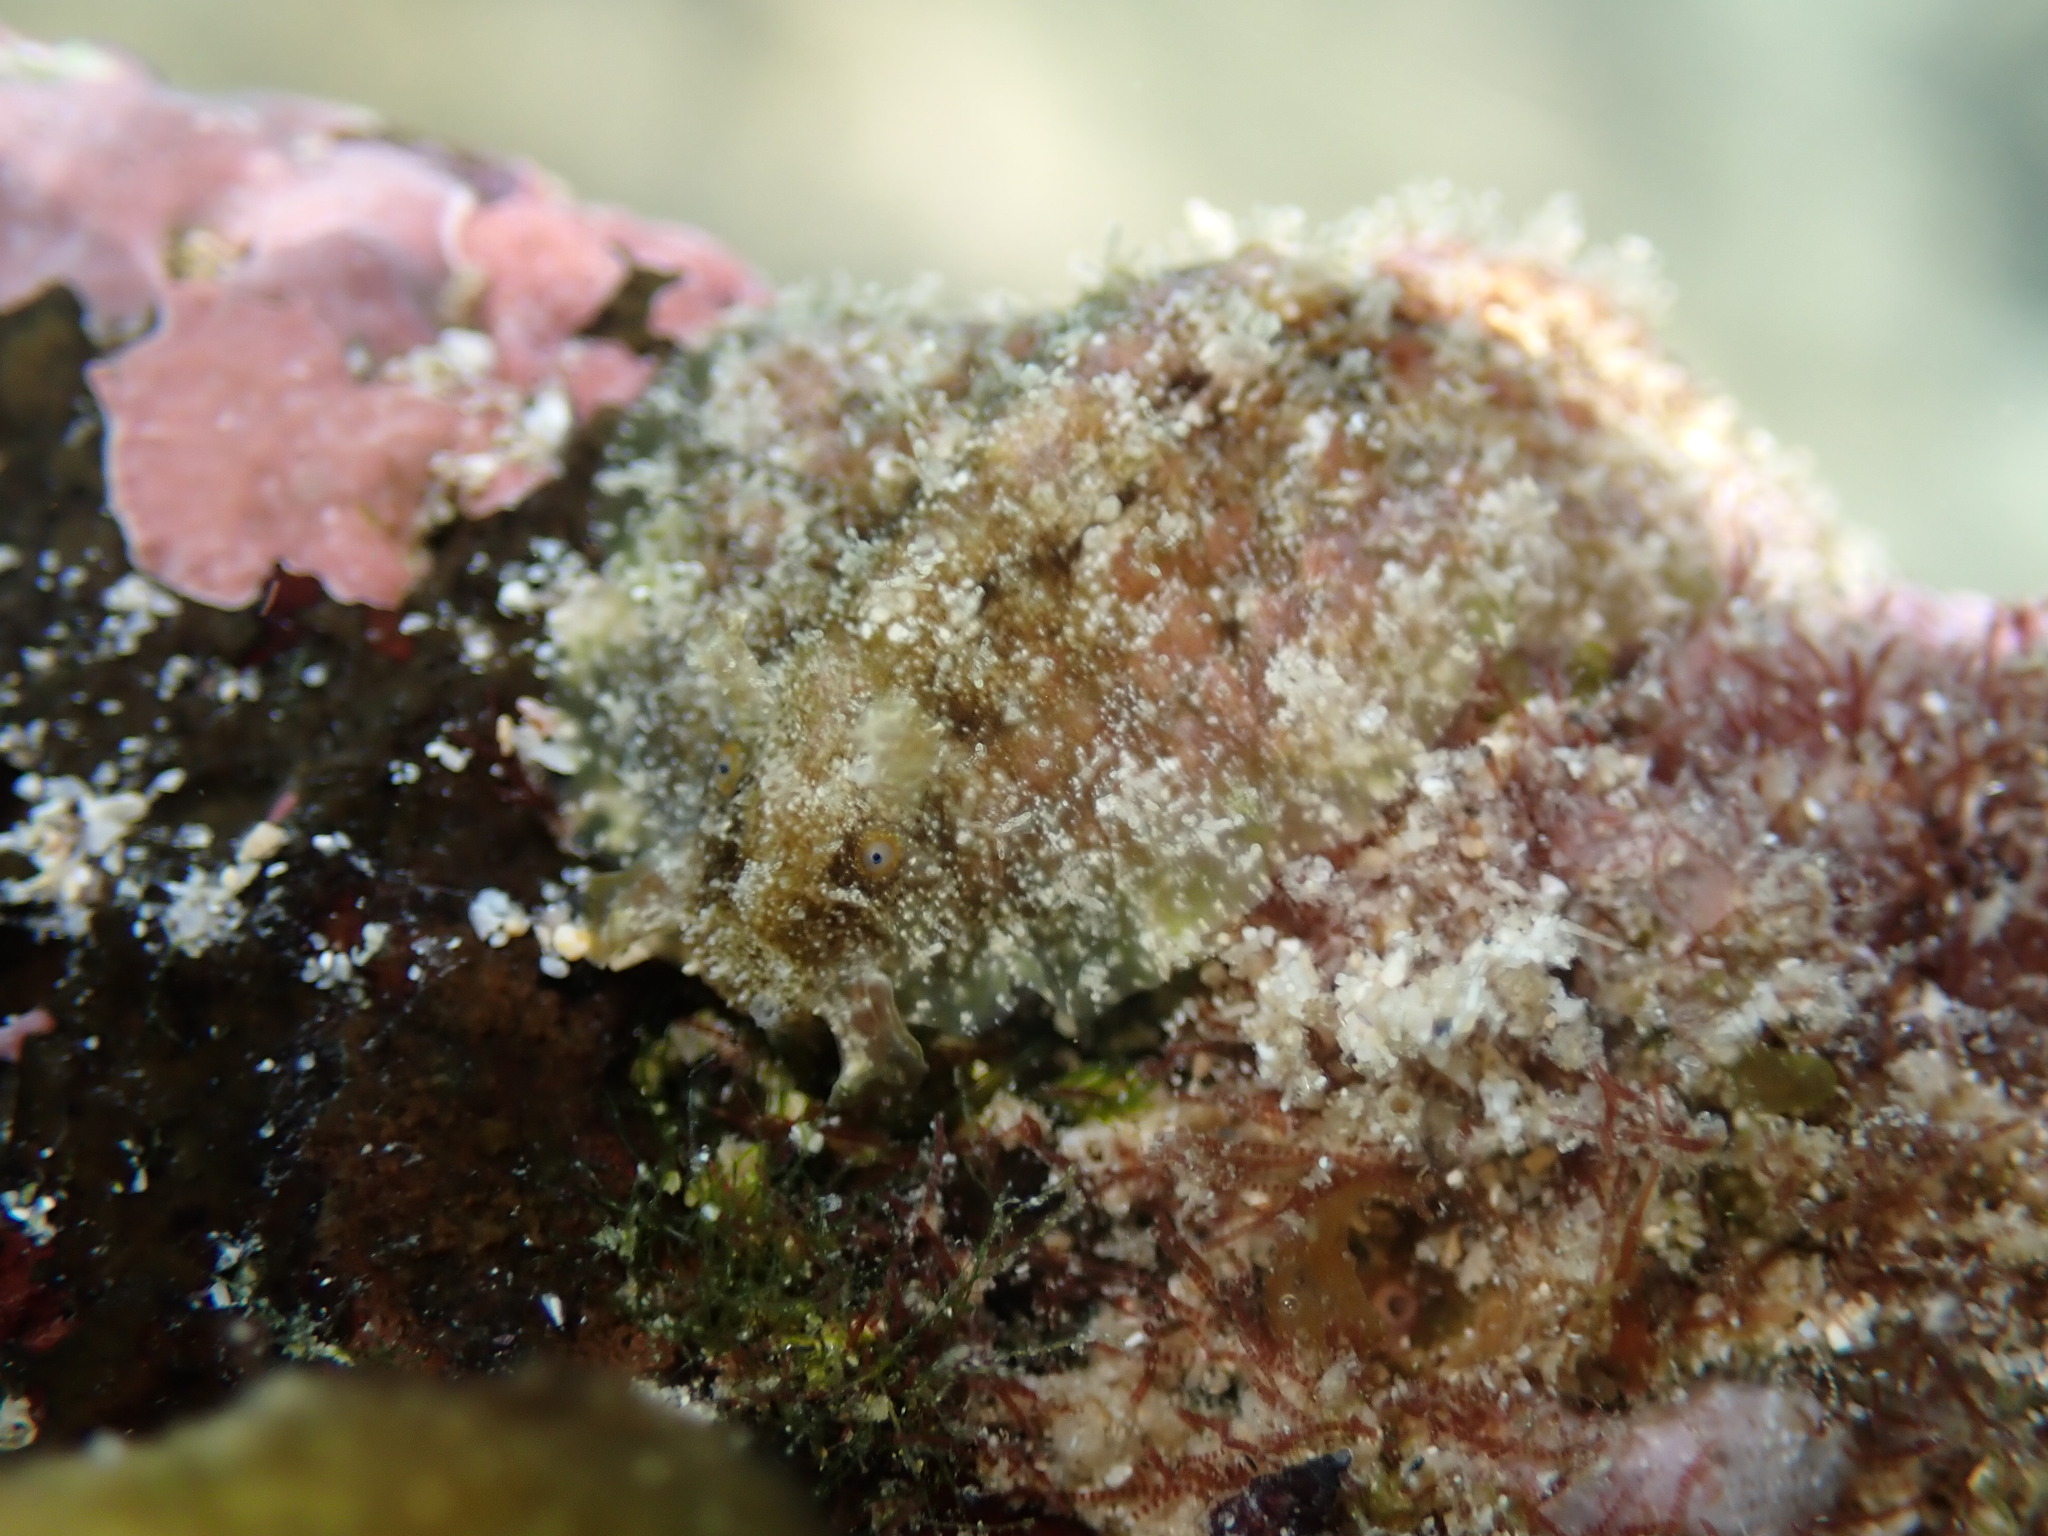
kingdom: Animalia
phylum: Mollusca
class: Gastropoda
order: Aplysiida
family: Aplysiidae
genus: Dolabrifera
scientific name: Dolabrifera dolabrifera
